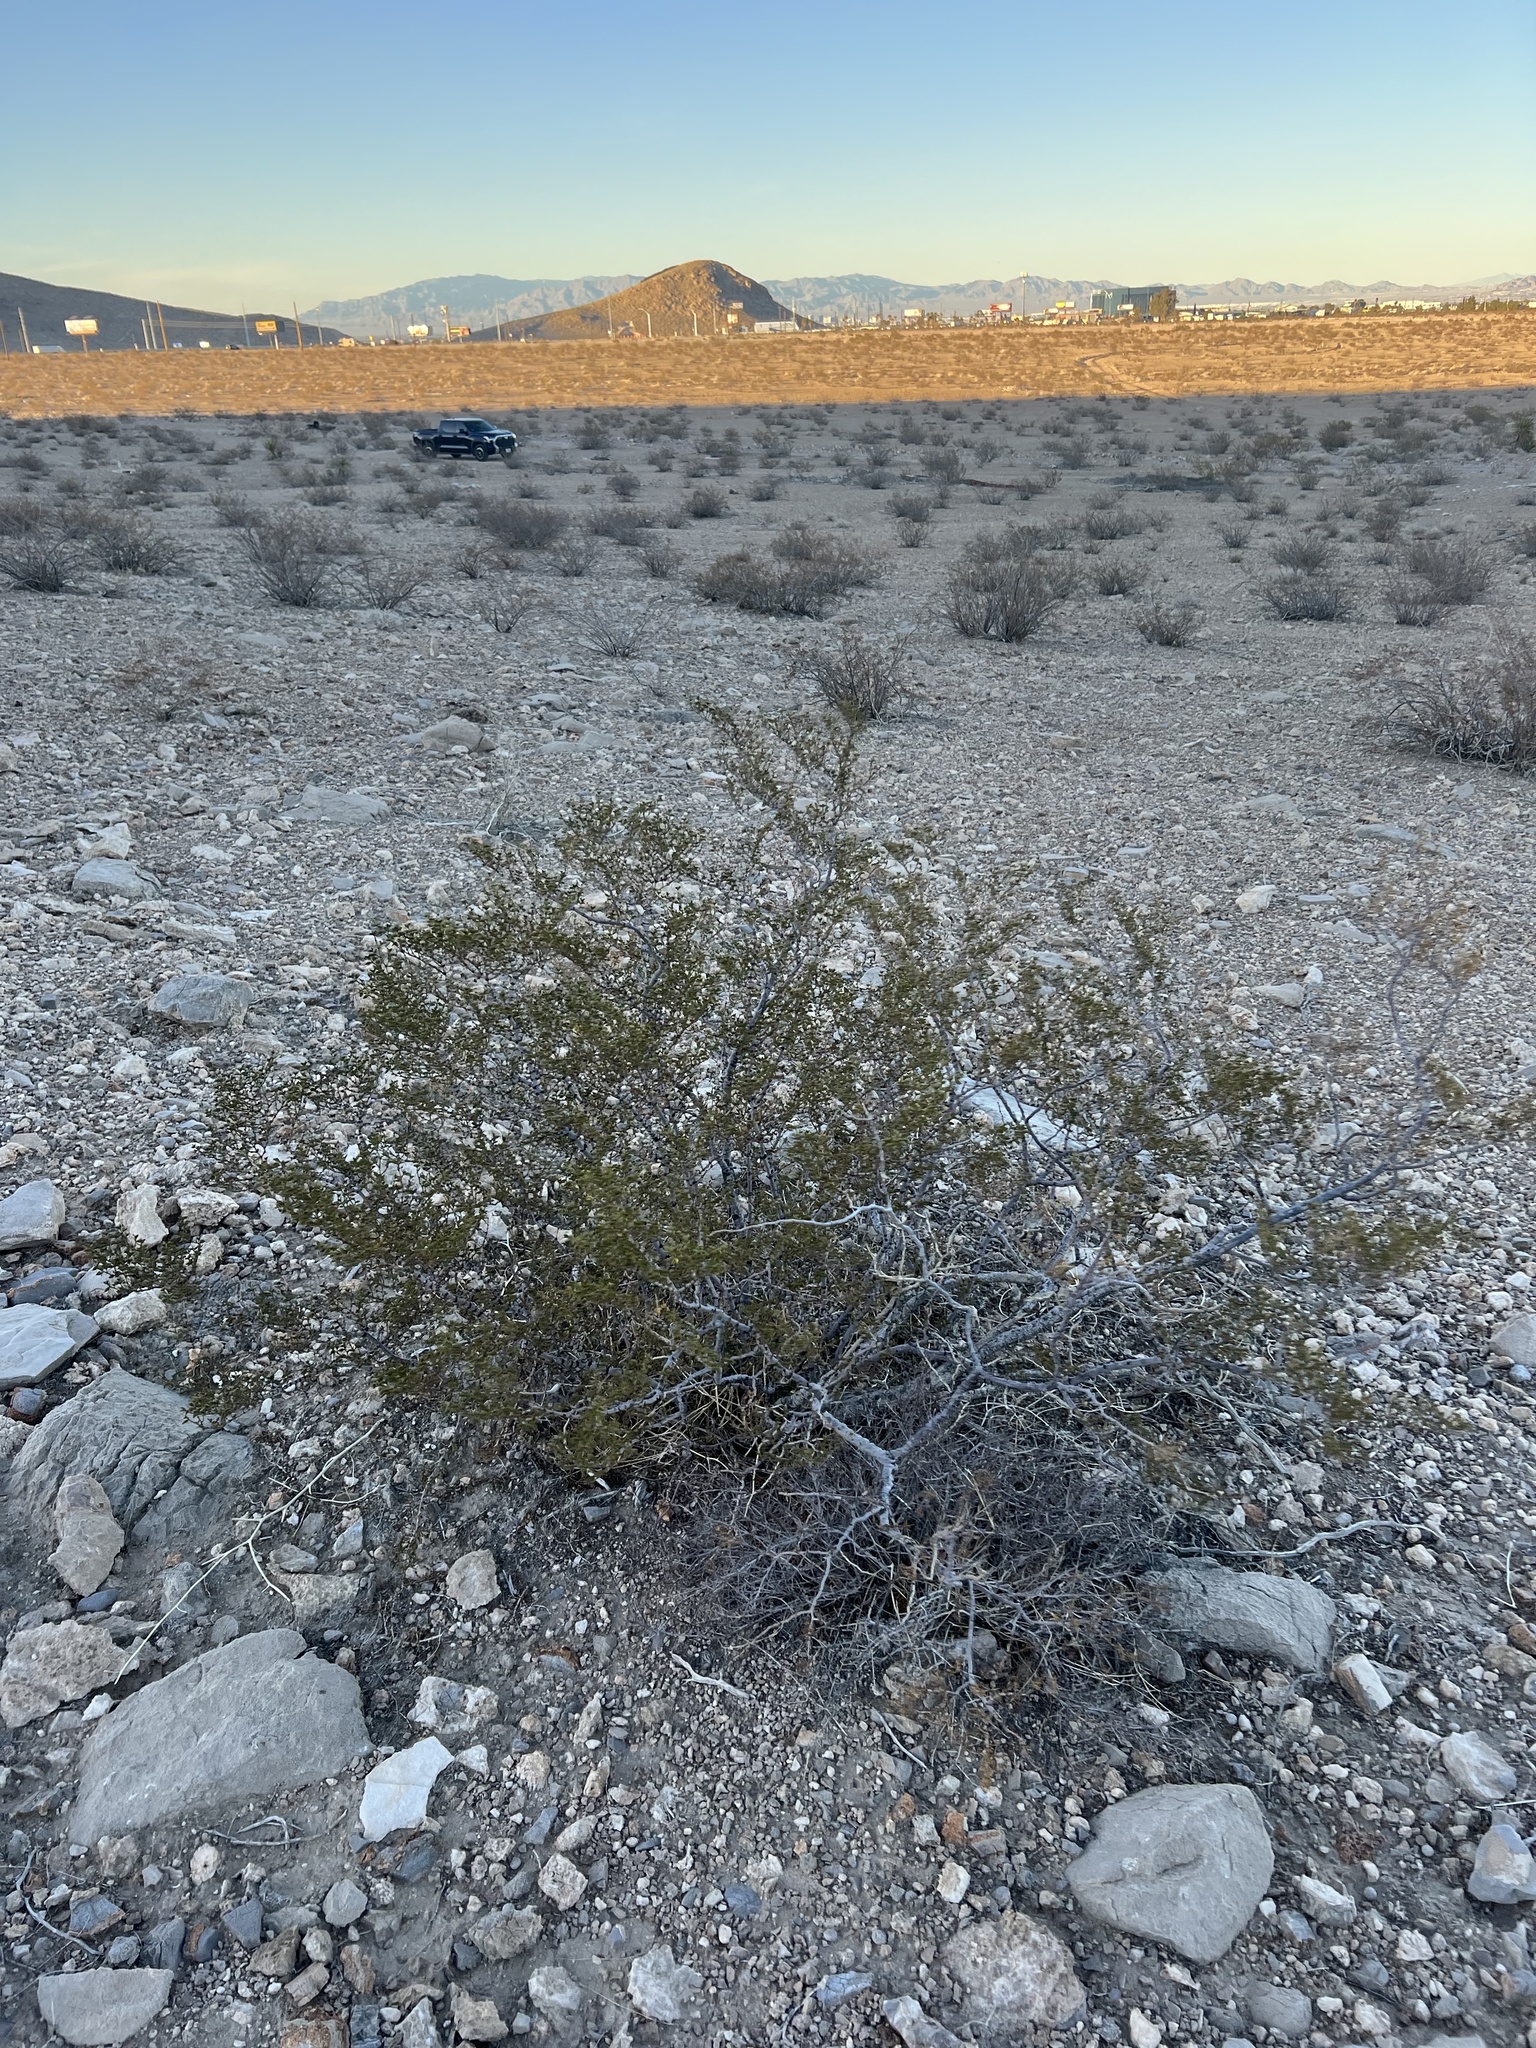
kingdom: Plantae
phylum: Tracheophyta
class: Magnoliopsida
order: Zygophyllales
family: Zygophyllaceae
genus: Larrea
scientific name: Larrea tridentata
